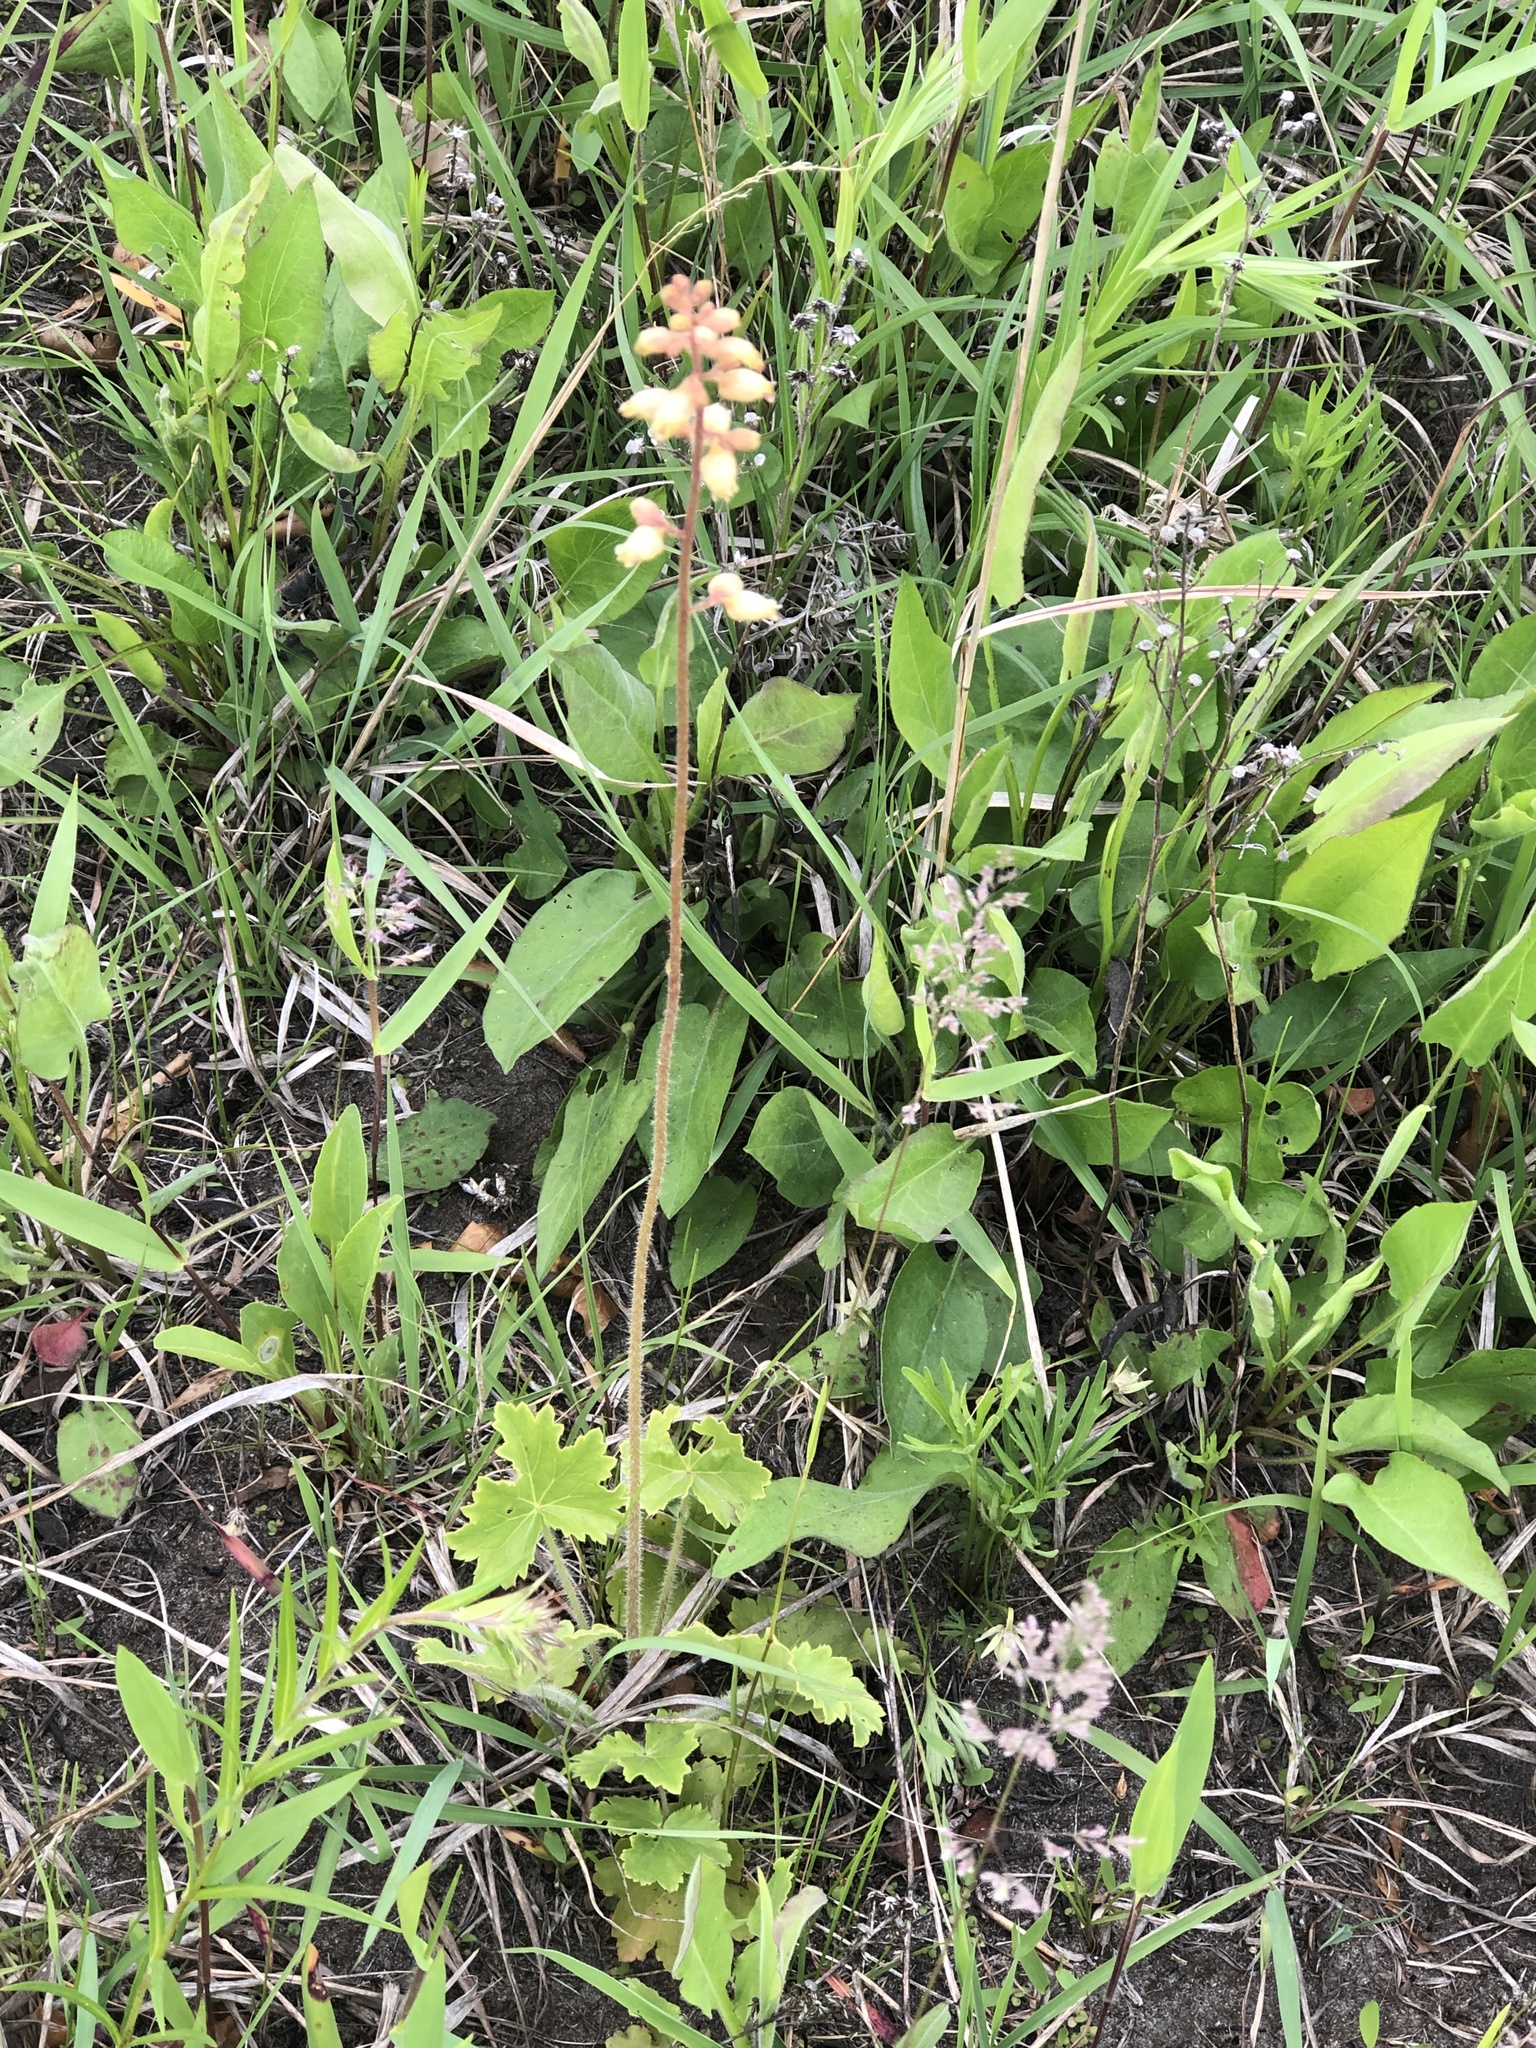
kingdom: Plantae
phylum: Tracheophyta
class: Magnoliopsida
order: Saxifragales
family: Saxifragaceae
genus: Heuchera
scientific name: Heuchera richardsonii
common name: Richardson's alumroot
